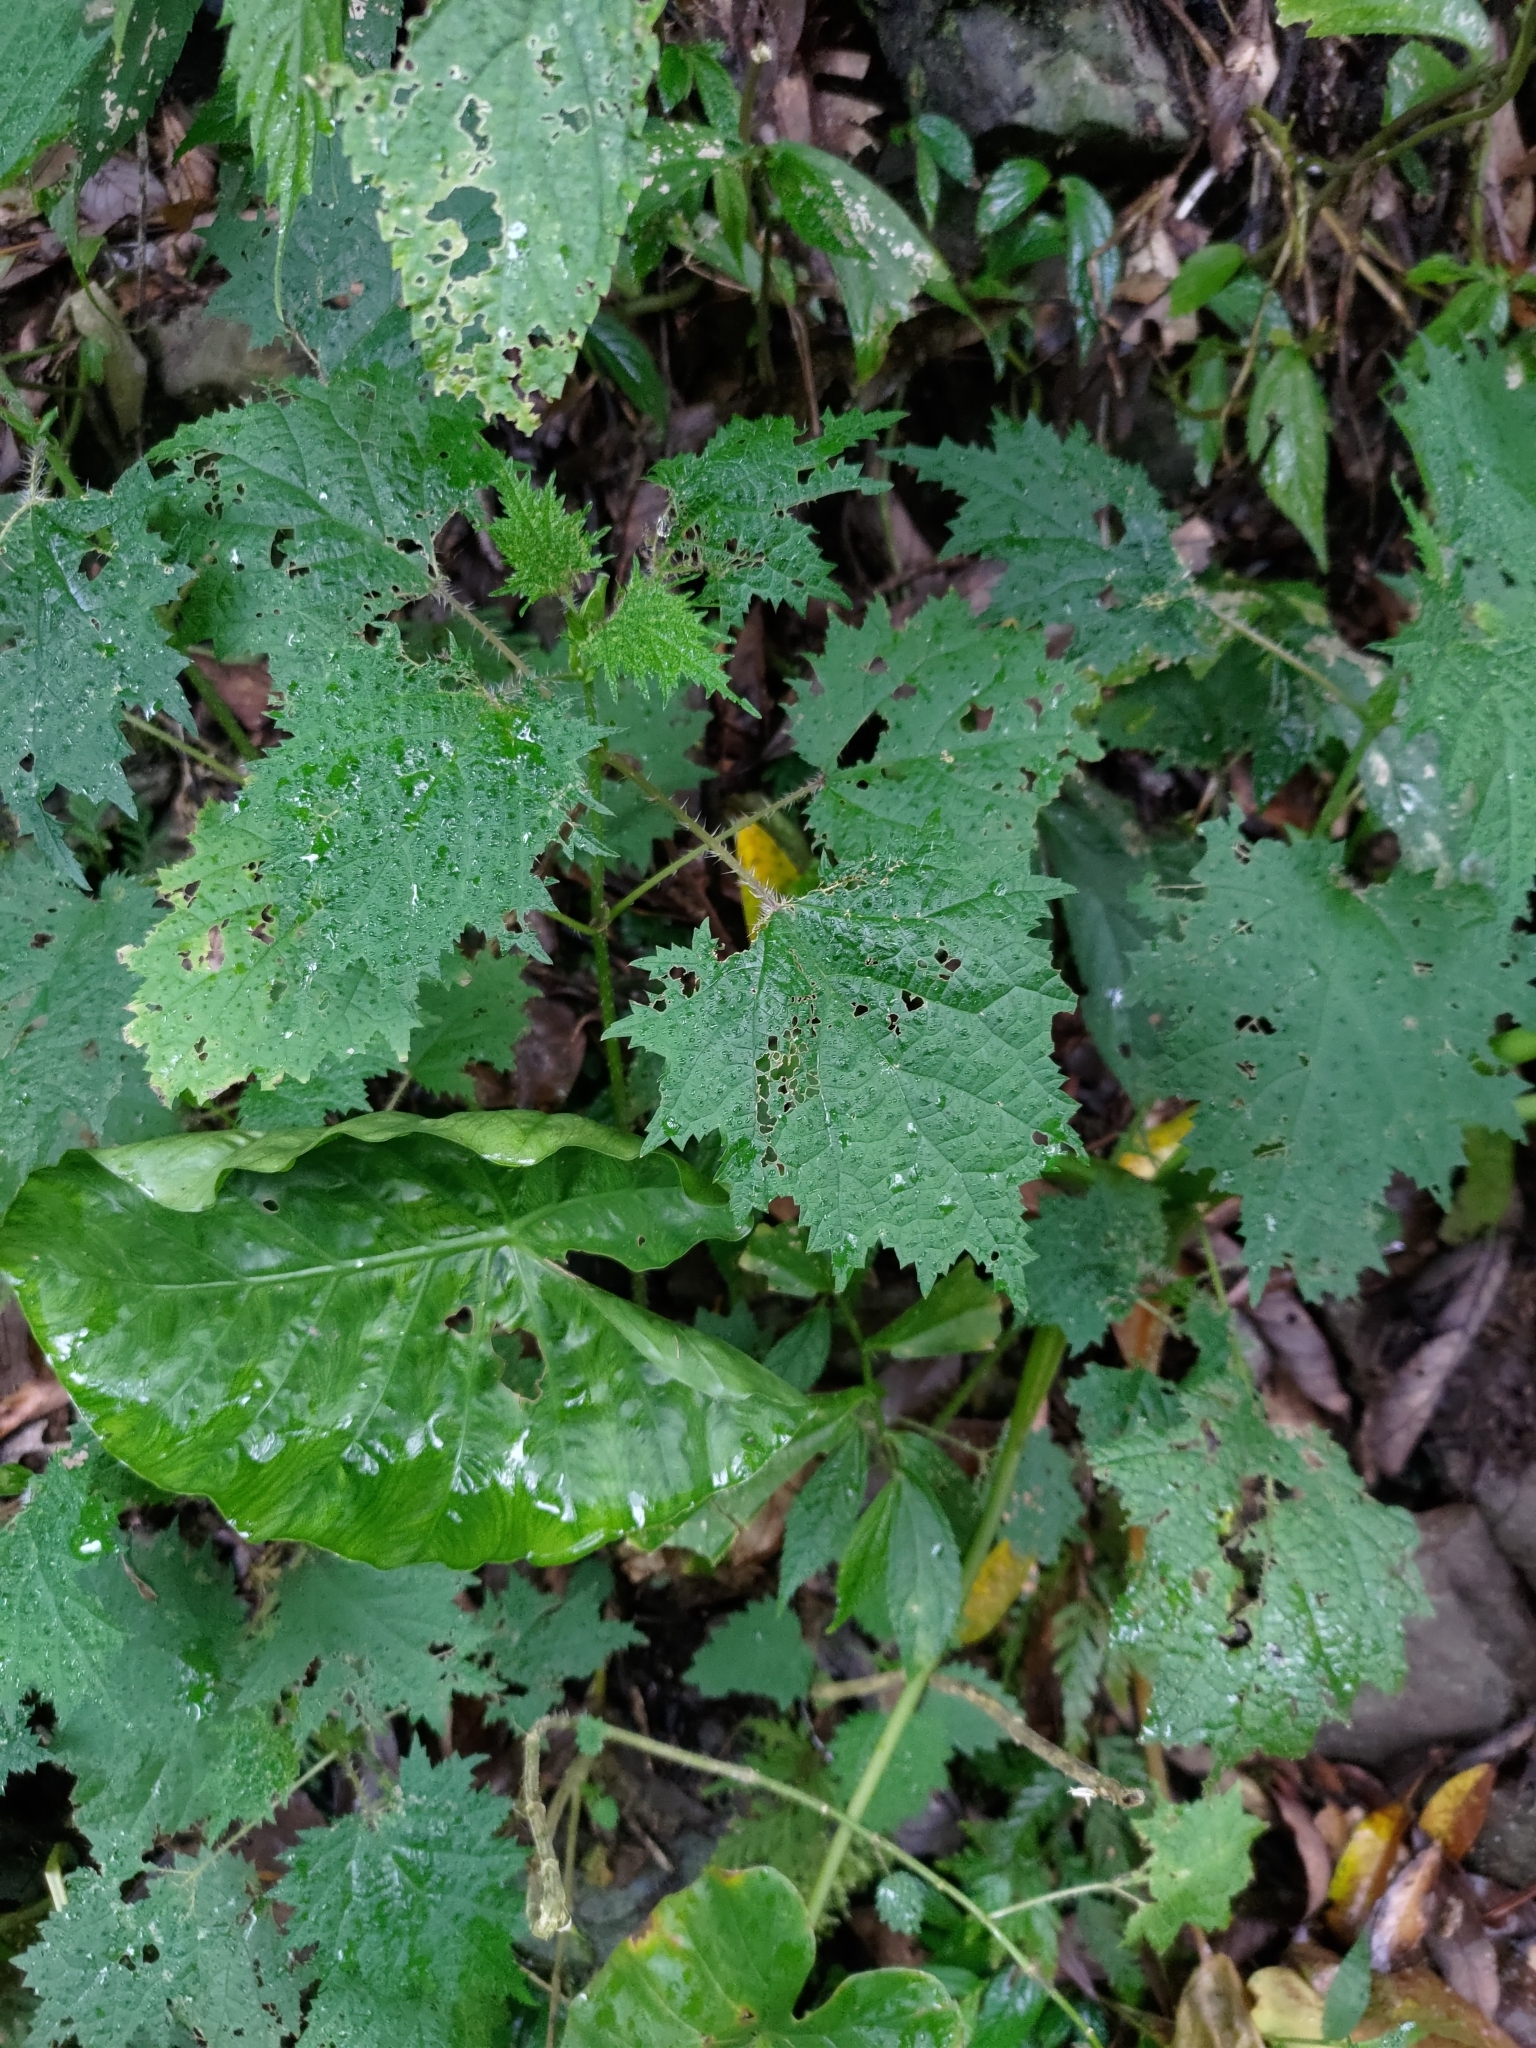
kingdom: Plantae
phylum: Tracheophyta
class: Magnoliopsida
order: Rosales
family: Urticaceae
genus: Urtica
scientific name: Urtica thunbergiana
